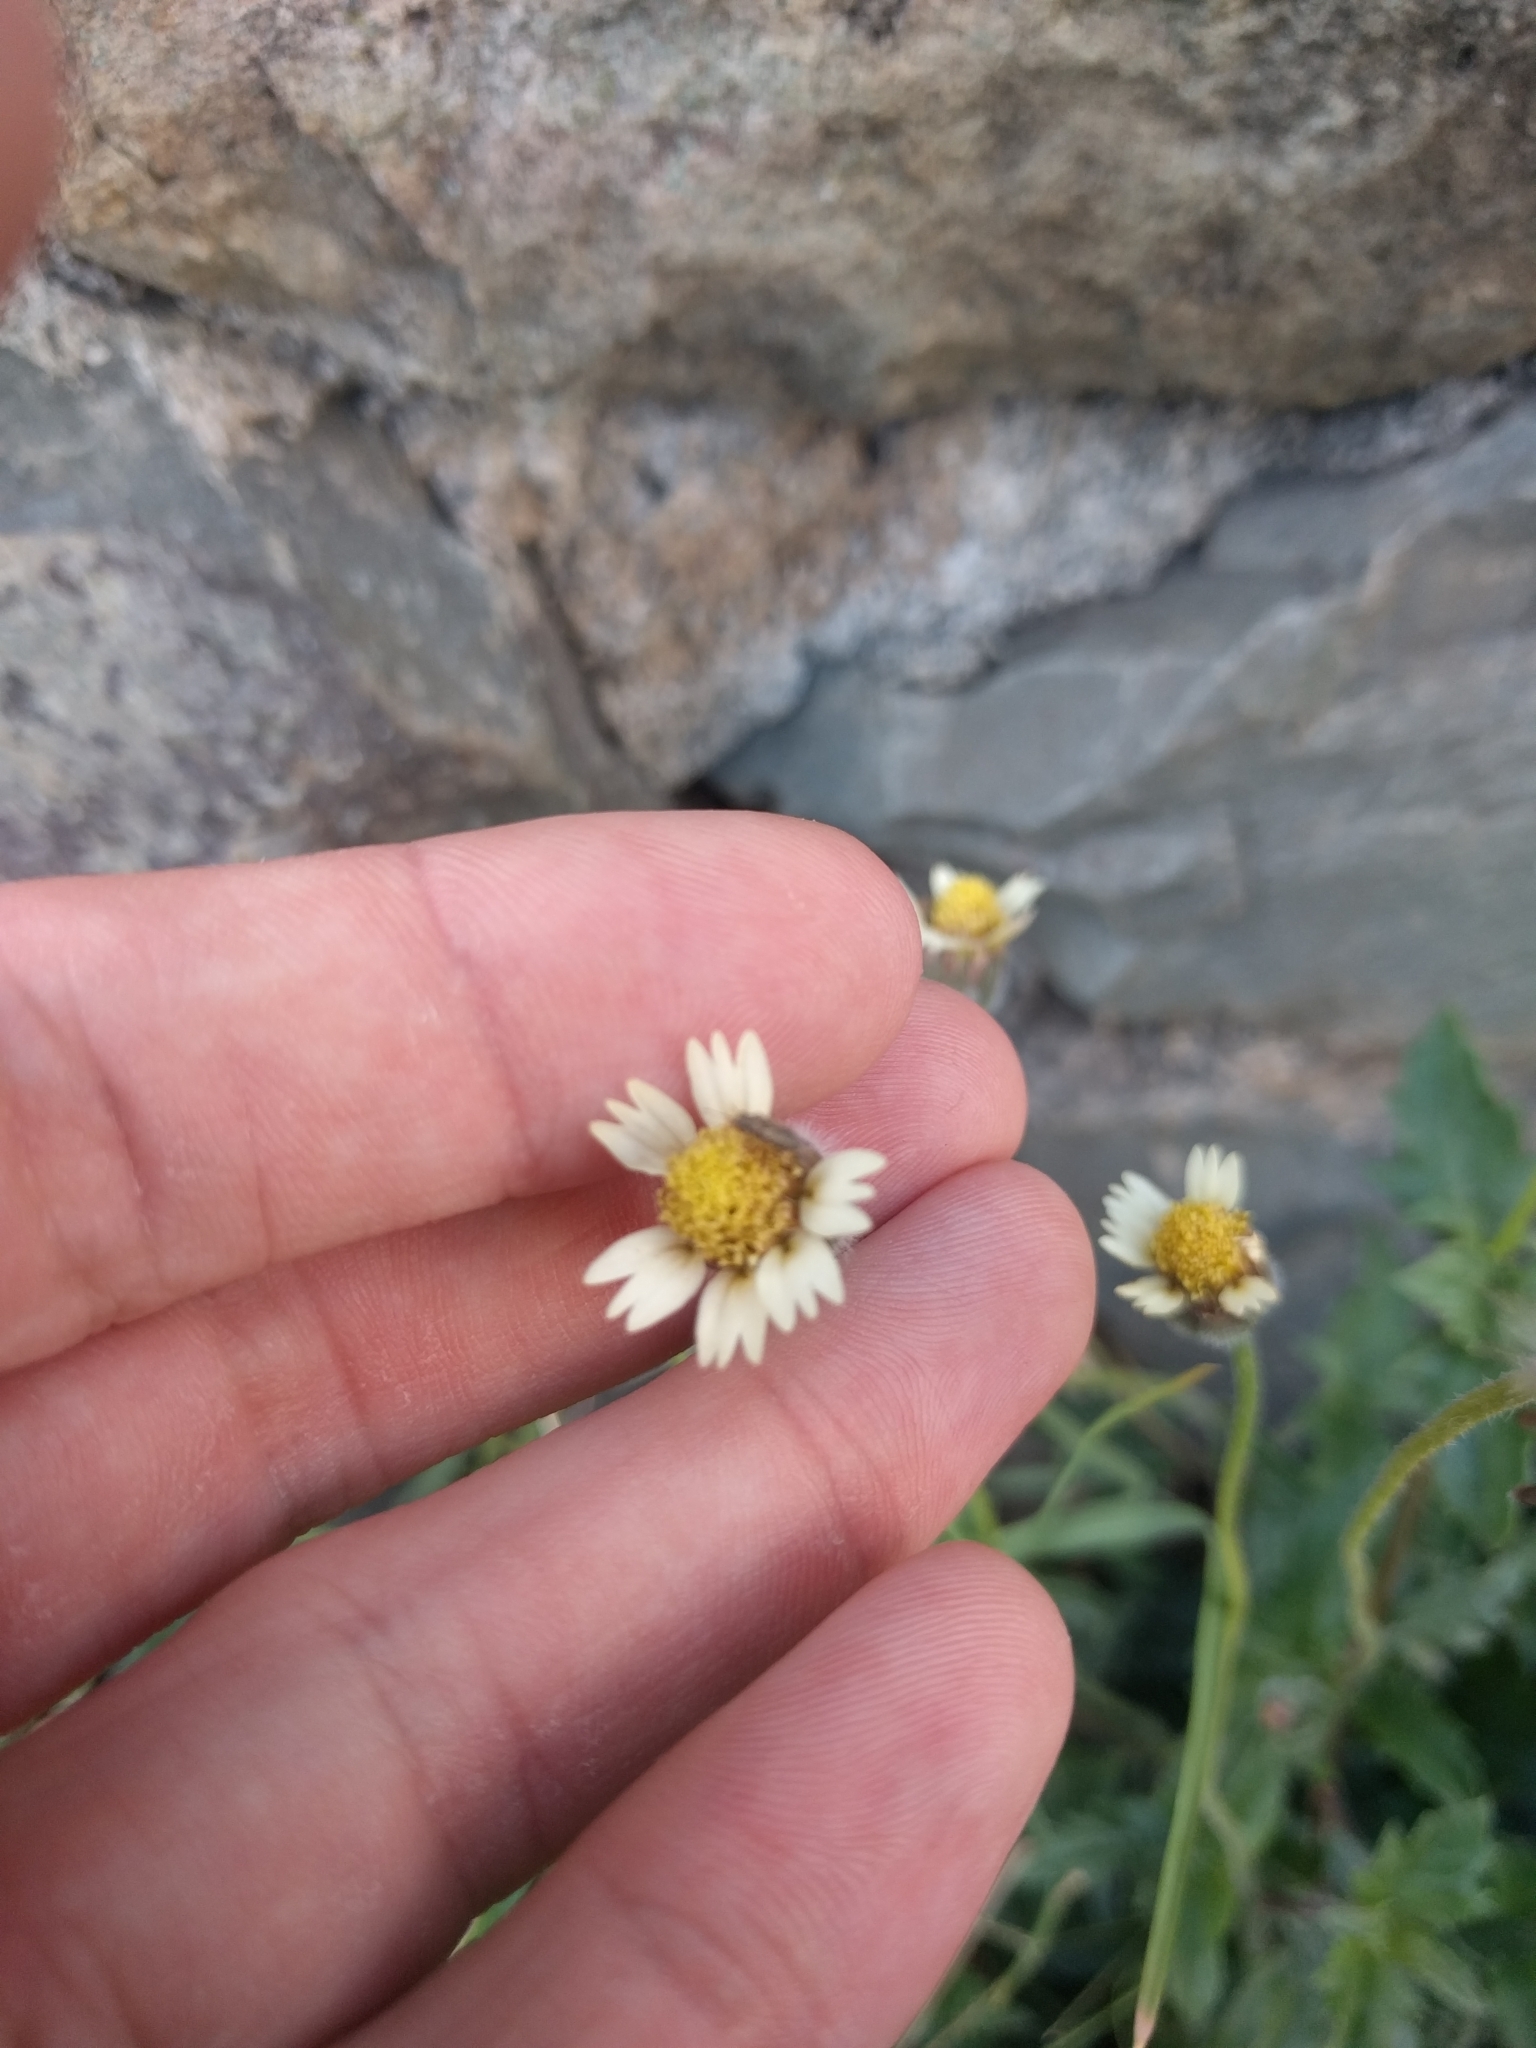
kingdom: Plantae
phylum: Tracheophyta
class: Magnoliopsida
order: Asterales
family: Asteraceae
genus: Tridax
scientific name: Tridax procumbens
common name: Coatbuttons
